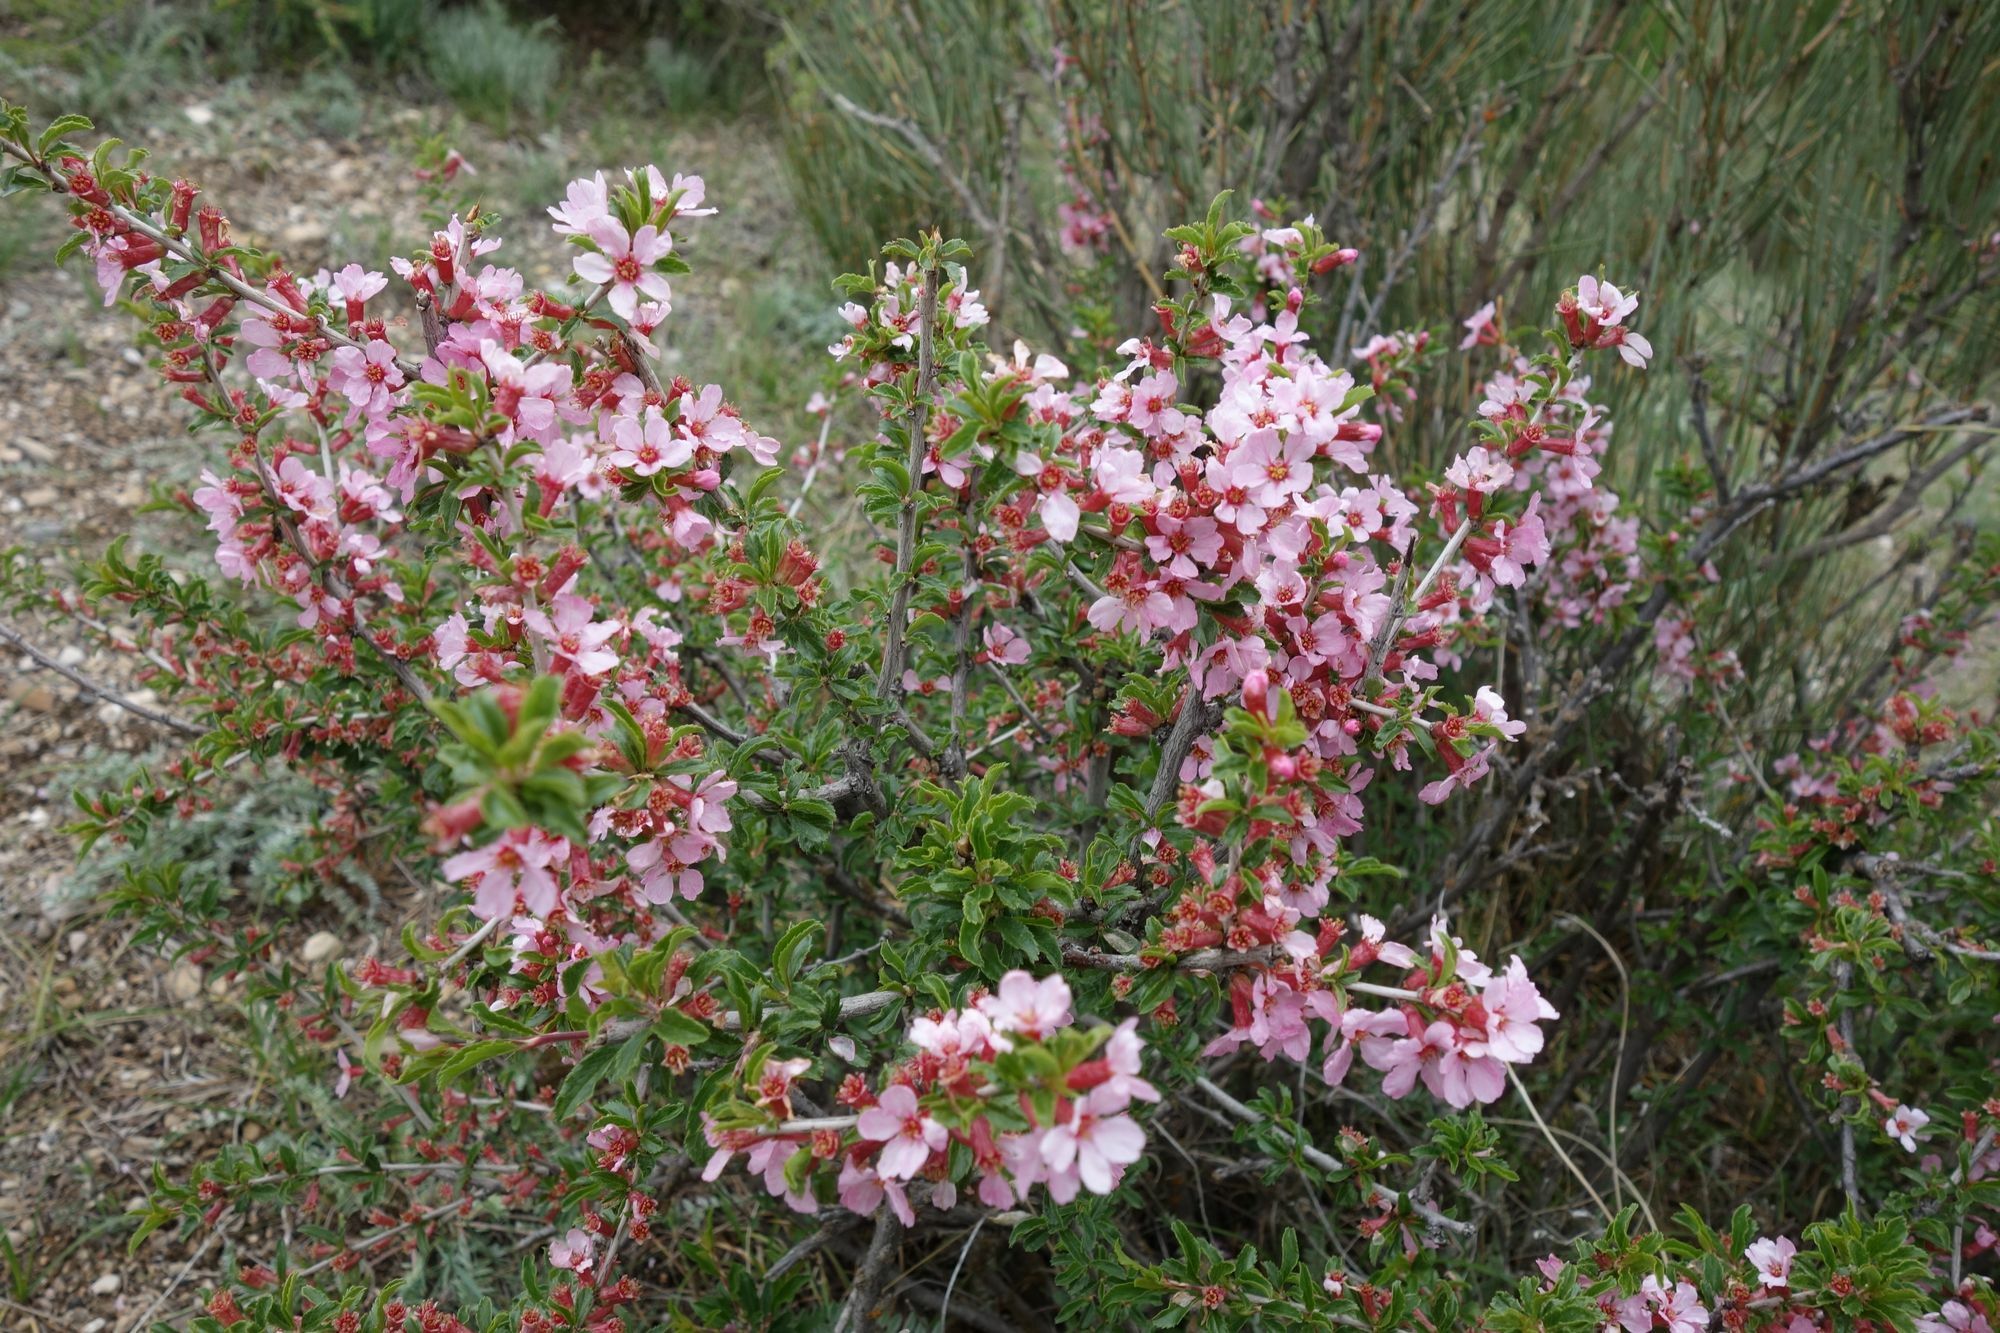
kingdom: Plantae
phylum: Tracheophyta
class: Magnoliopsida
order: Rosales
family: Rosaceae
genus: Prunus
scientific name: Prunus griffithii
